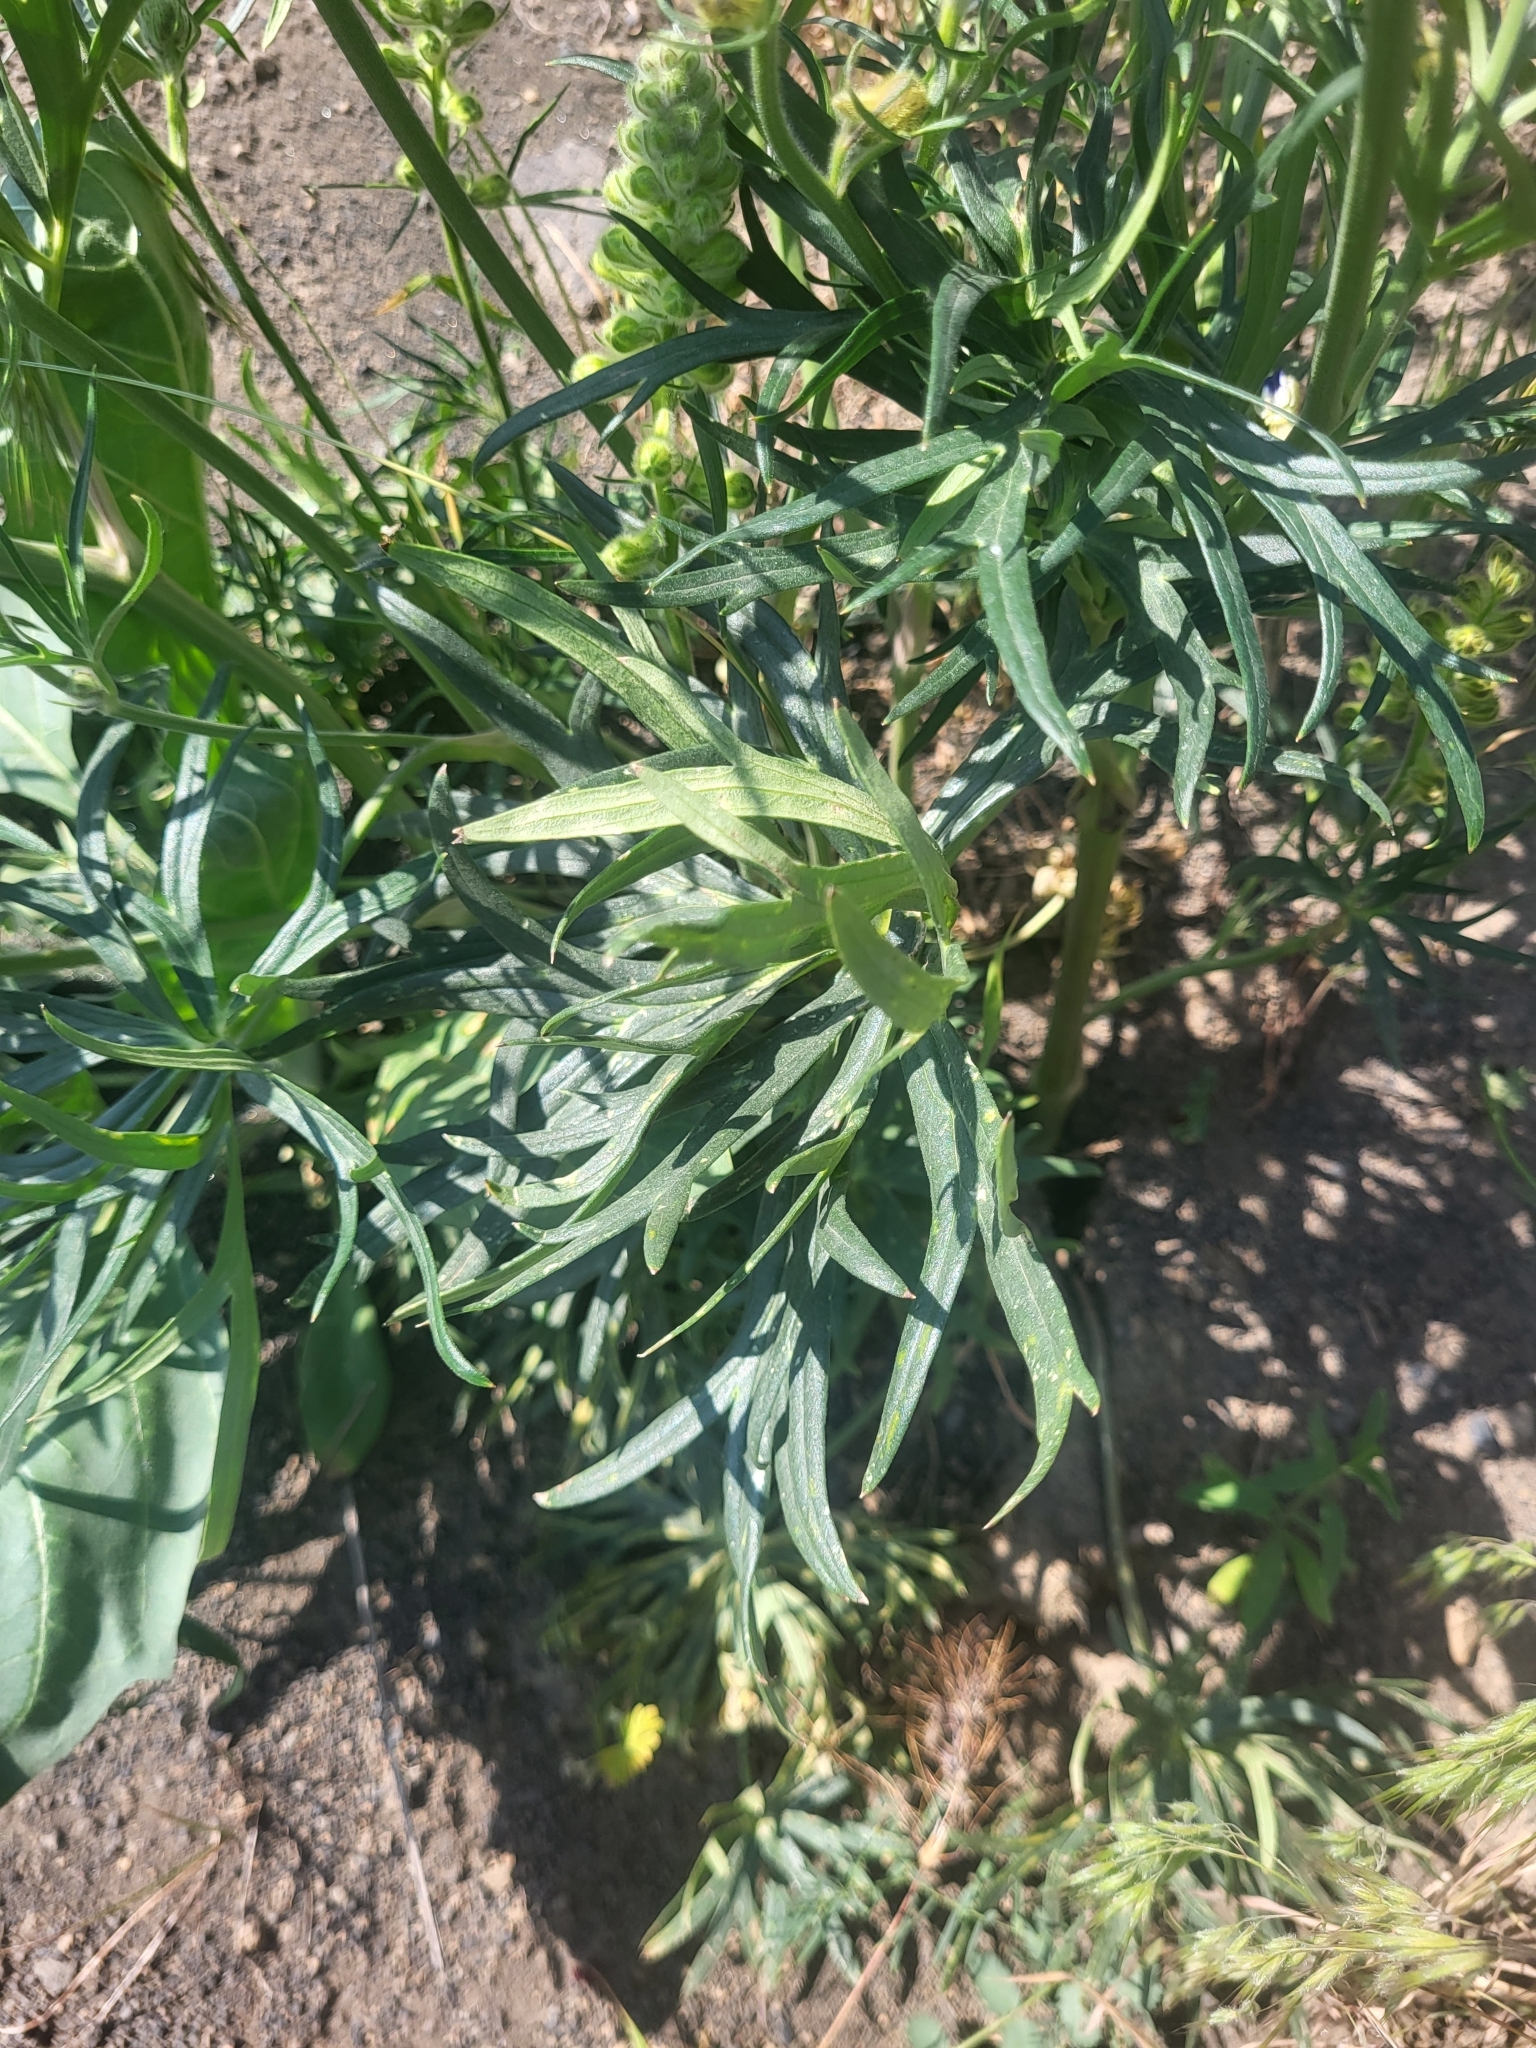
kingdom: Plantae
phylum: Tracheophyta
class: Magnoliopsida
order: Ranunculales
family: Ranunculaceae
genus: Delphinium
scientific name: Delphinium szowitsianum
